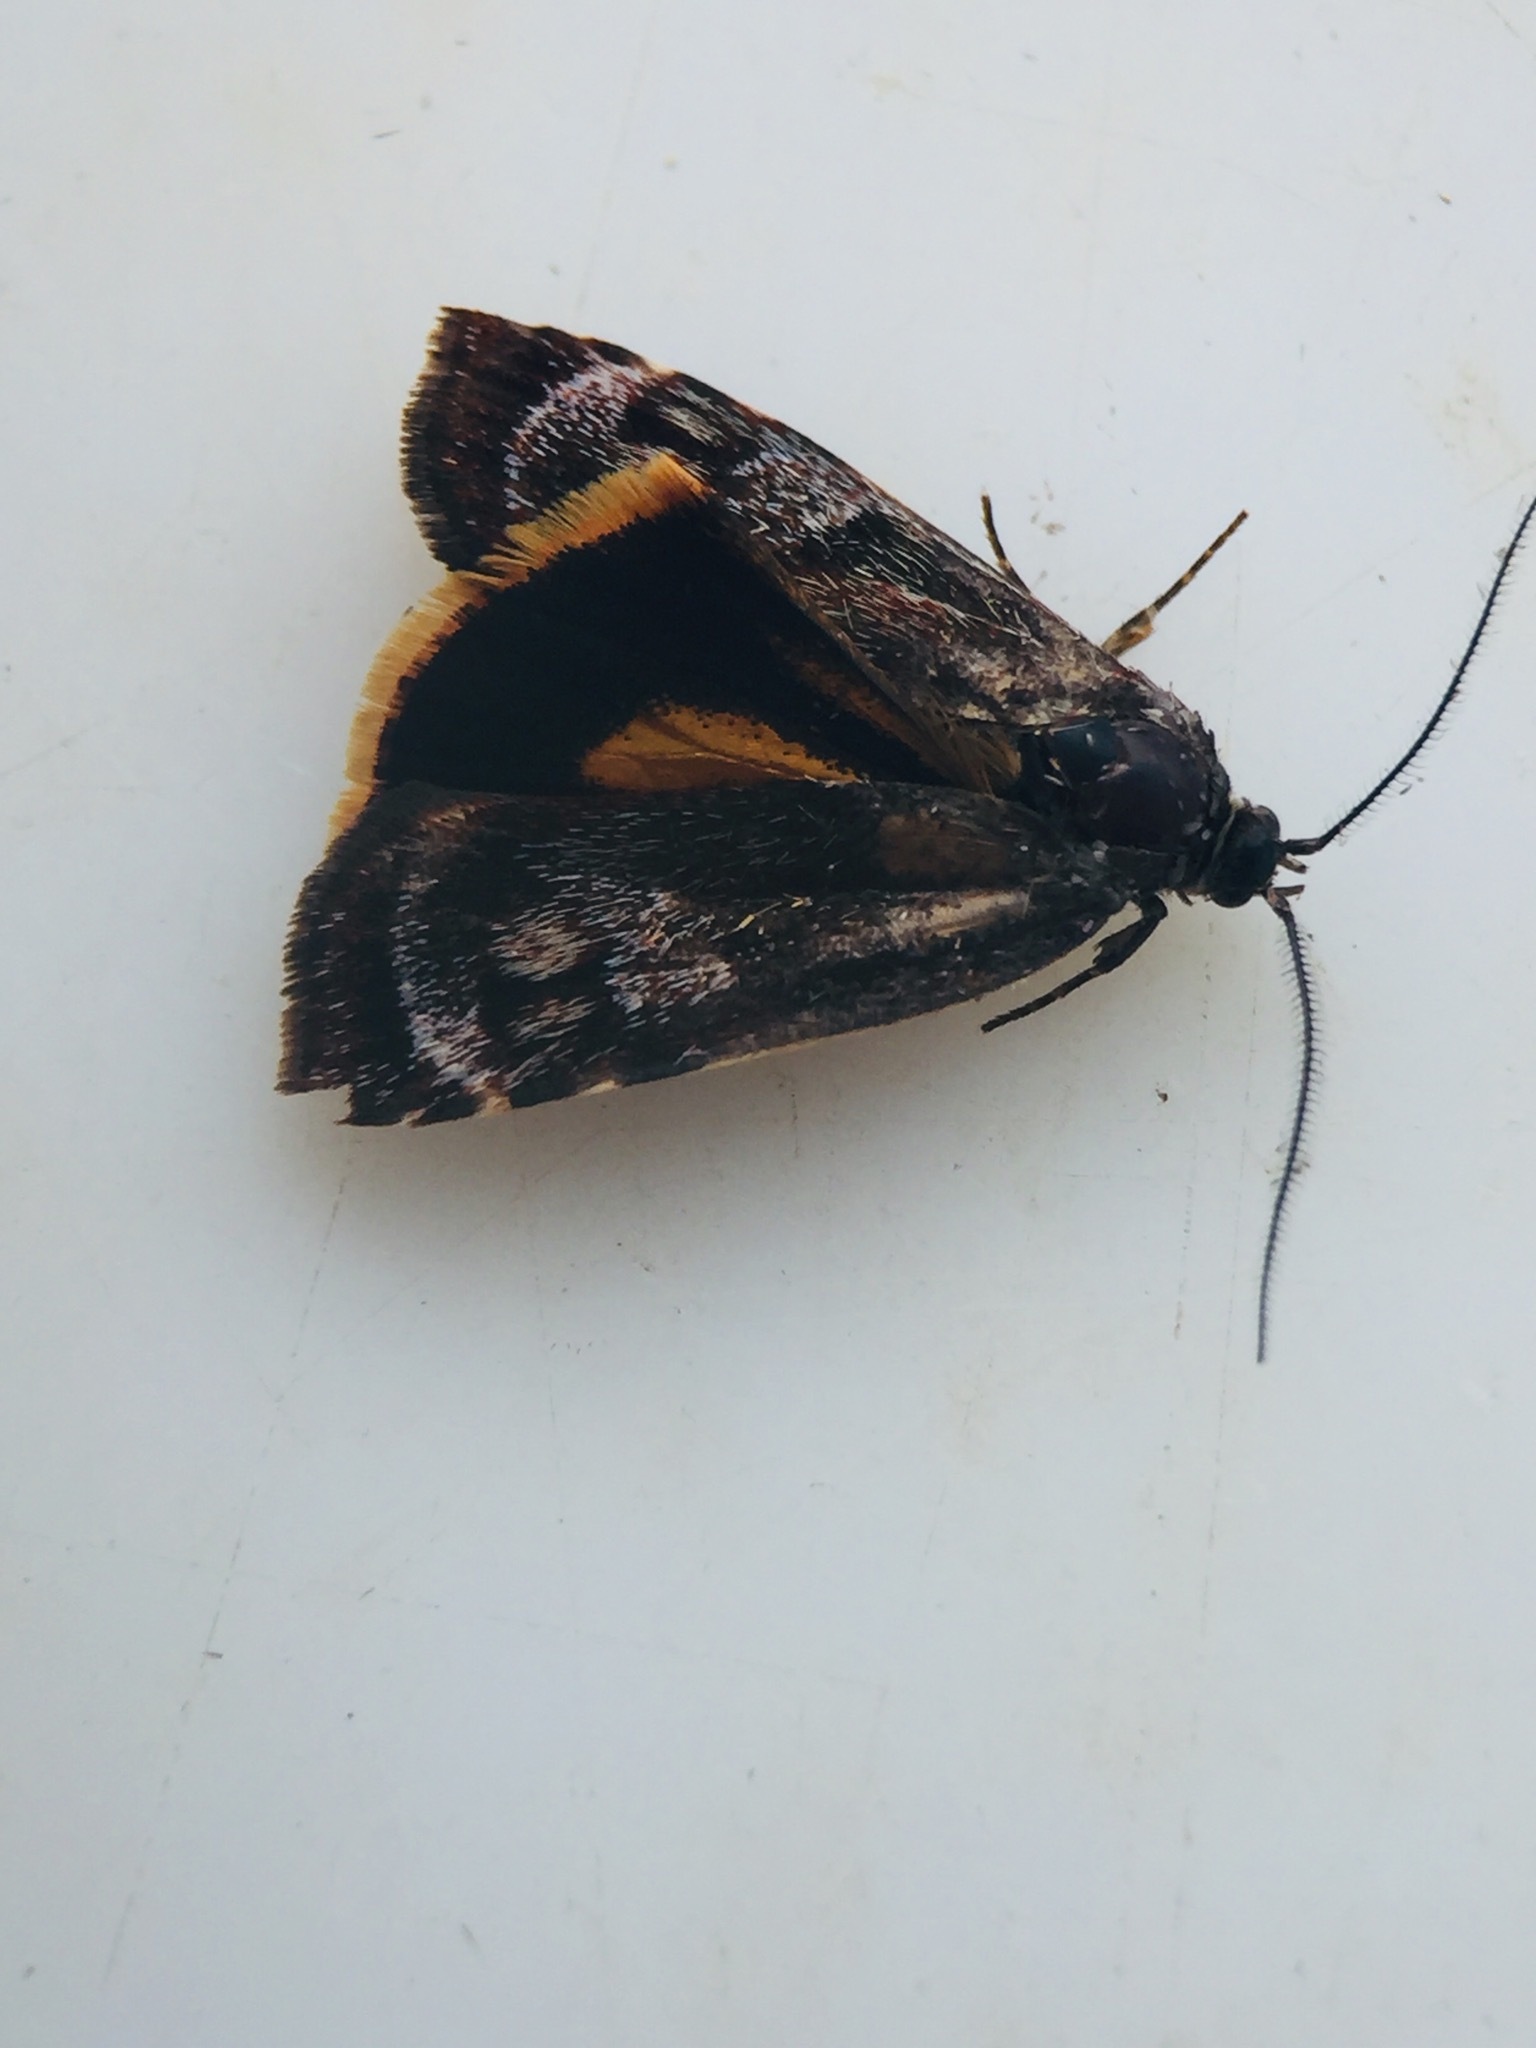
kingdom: Animalia
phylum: Arthropoda
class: Insecta
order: Lepidoptera
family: Oecophoridae
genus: Hierodoris
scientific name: Hierodoris
